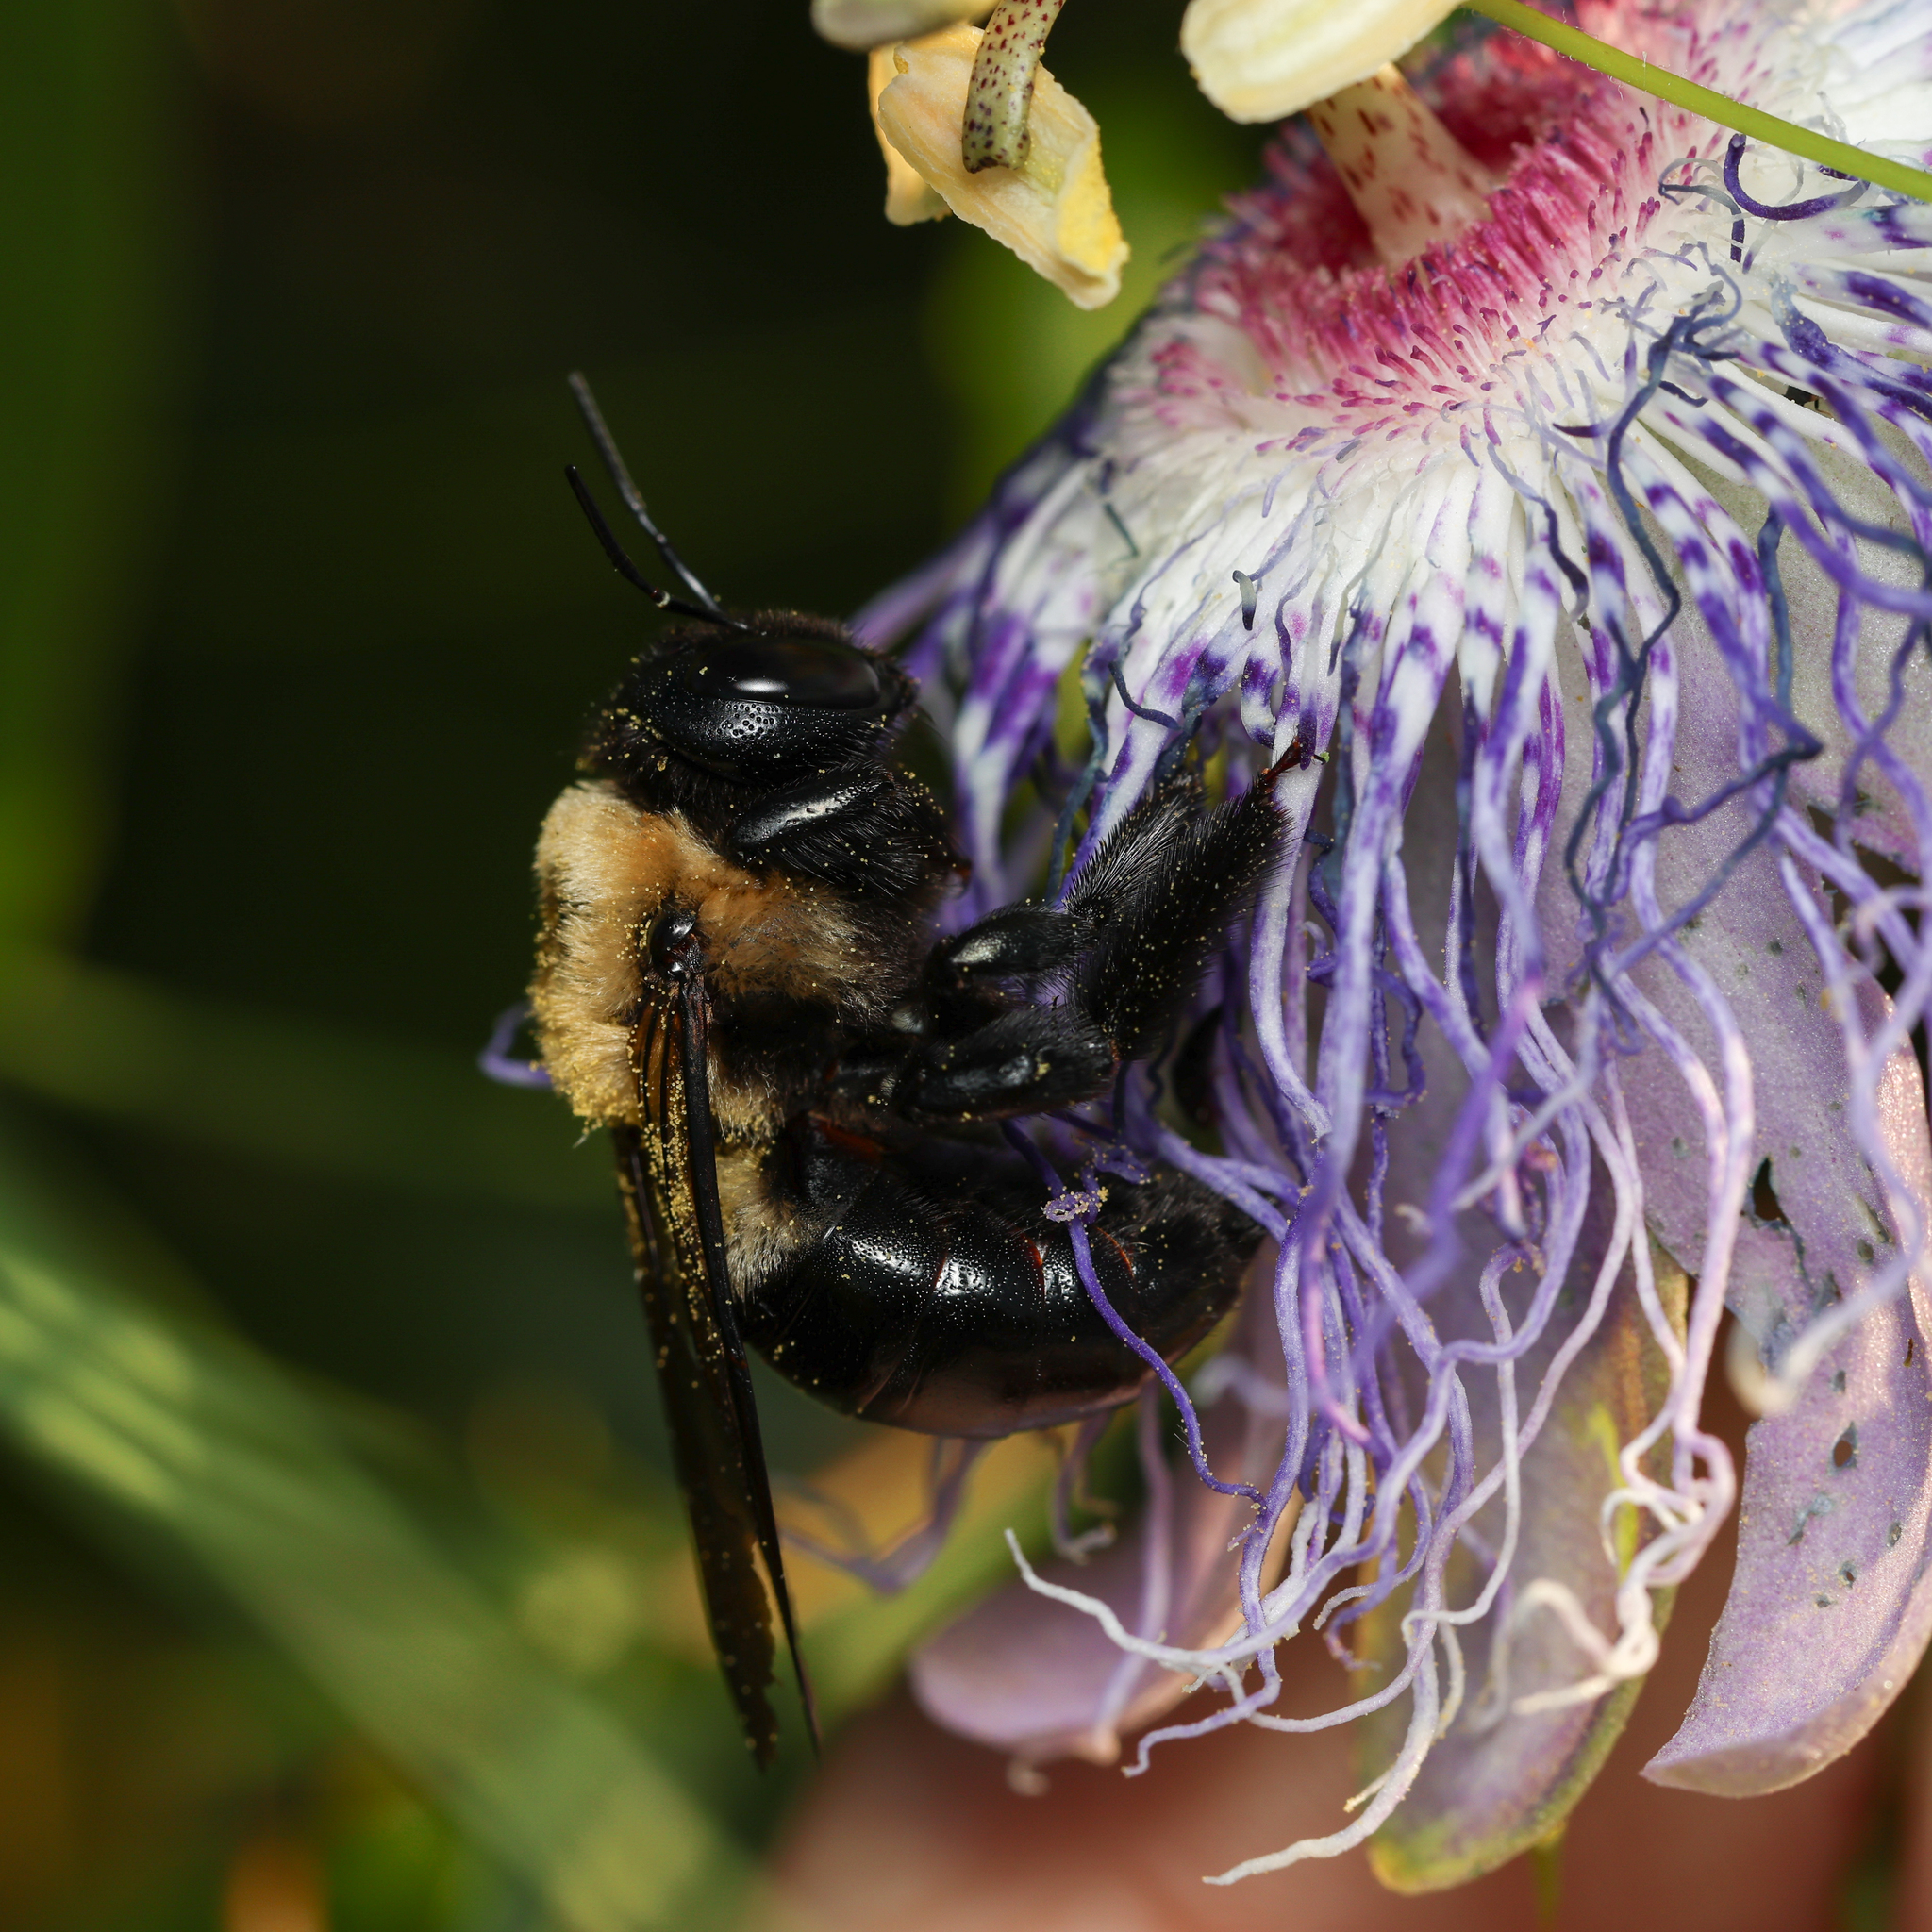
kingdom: Animalia
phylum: Arthropoda
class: Insecta
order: Hymenoptera
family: Apidae
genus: Xylocopa
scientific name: Xylocopa virginica
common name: Carpenter bee
